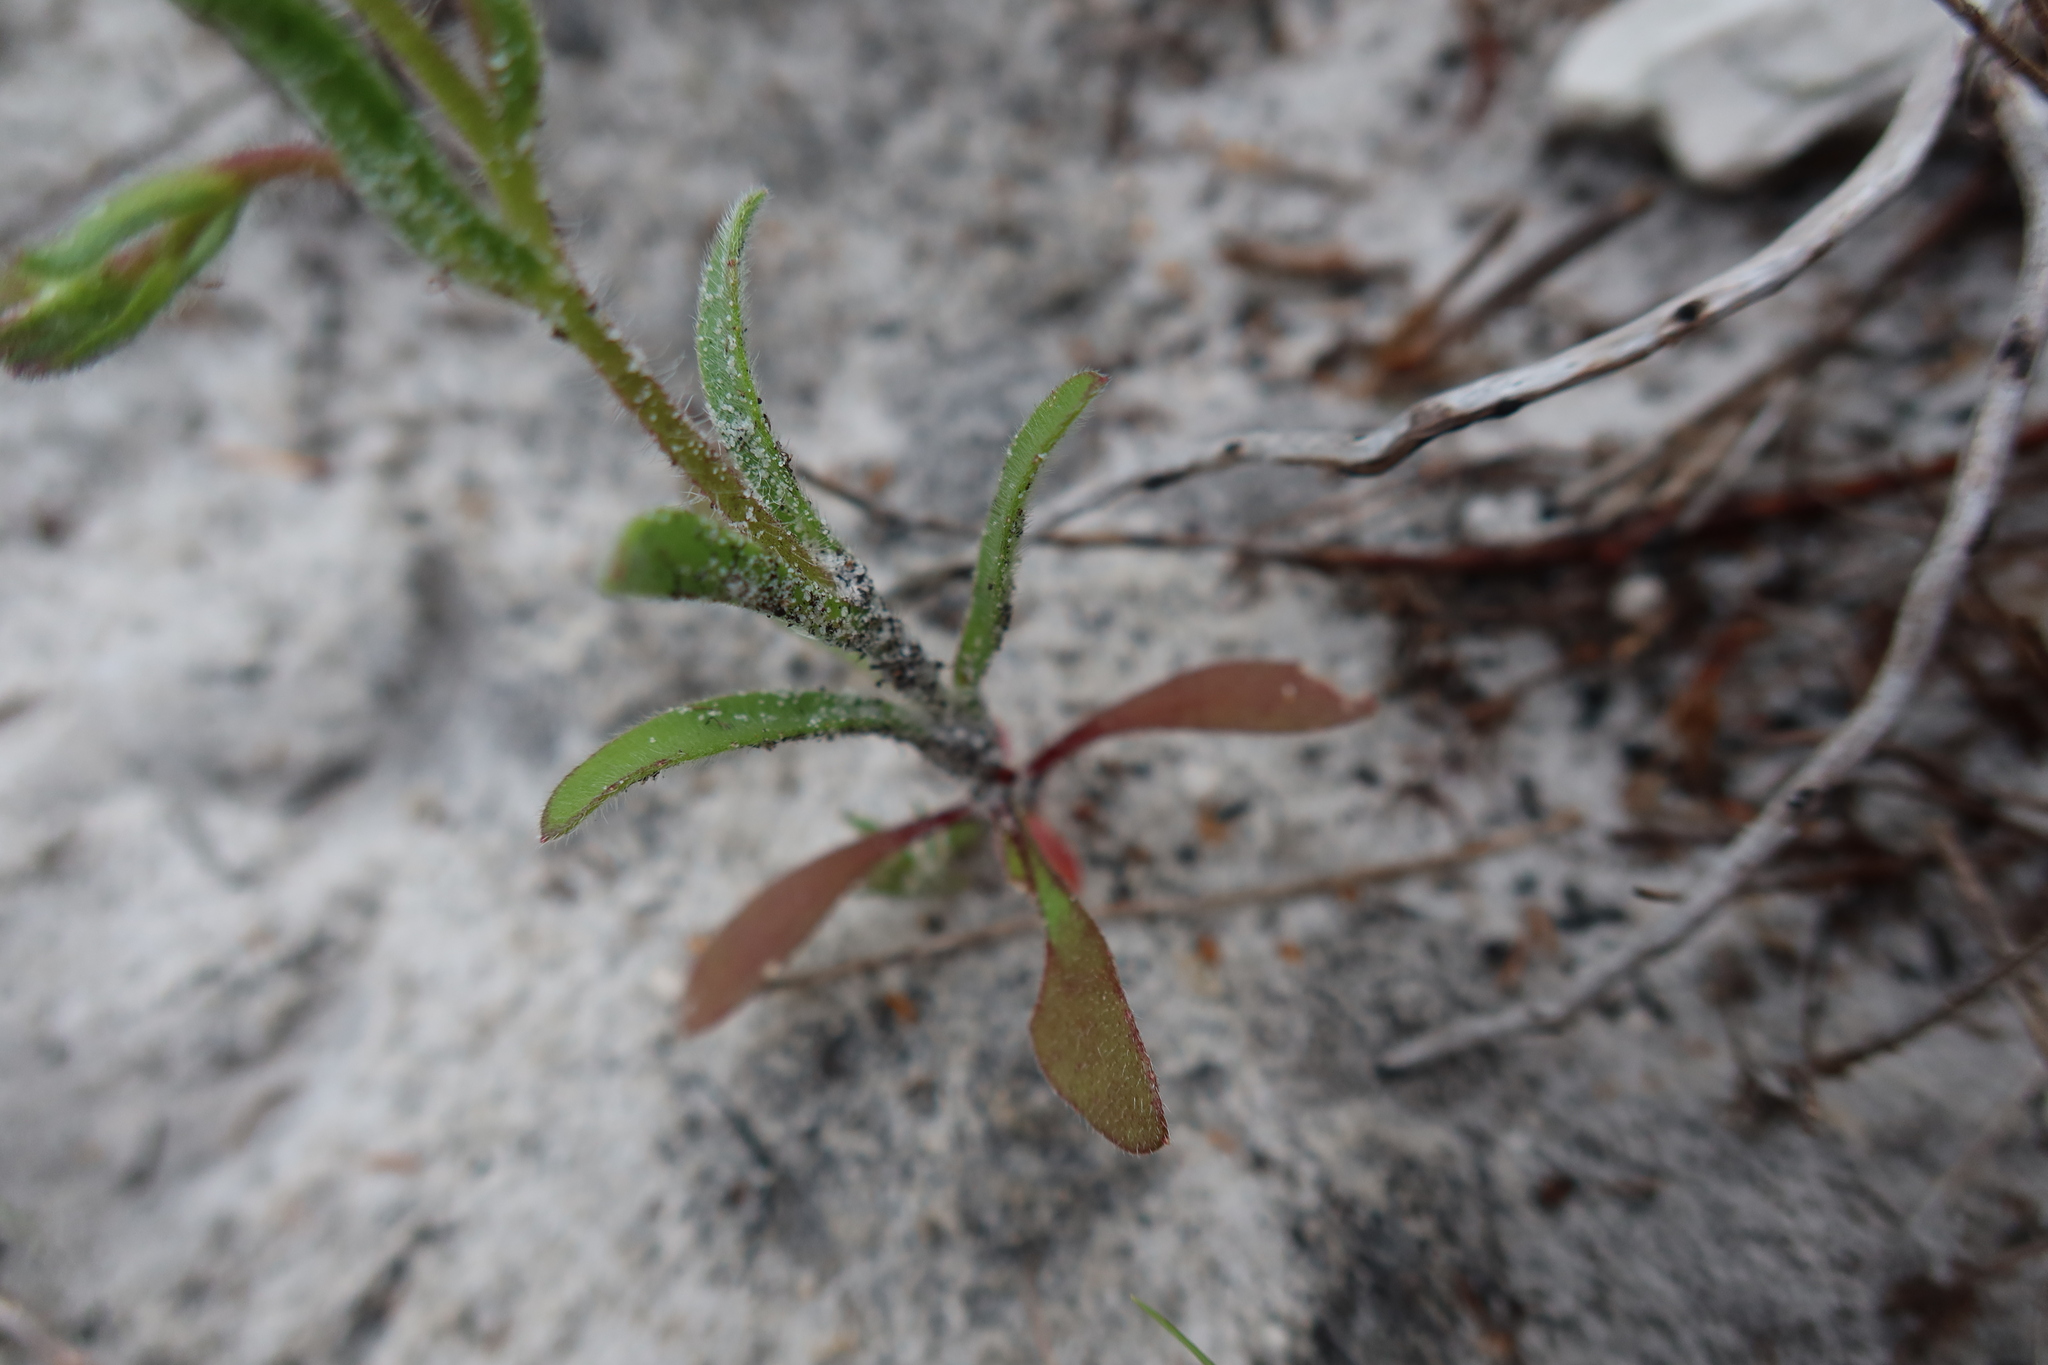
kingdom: Plantae
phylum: Tracheophyta
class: Magnoliopsida
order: Asterales
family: Asteraceae
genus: Felicia
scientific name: Felicia heterophylla
